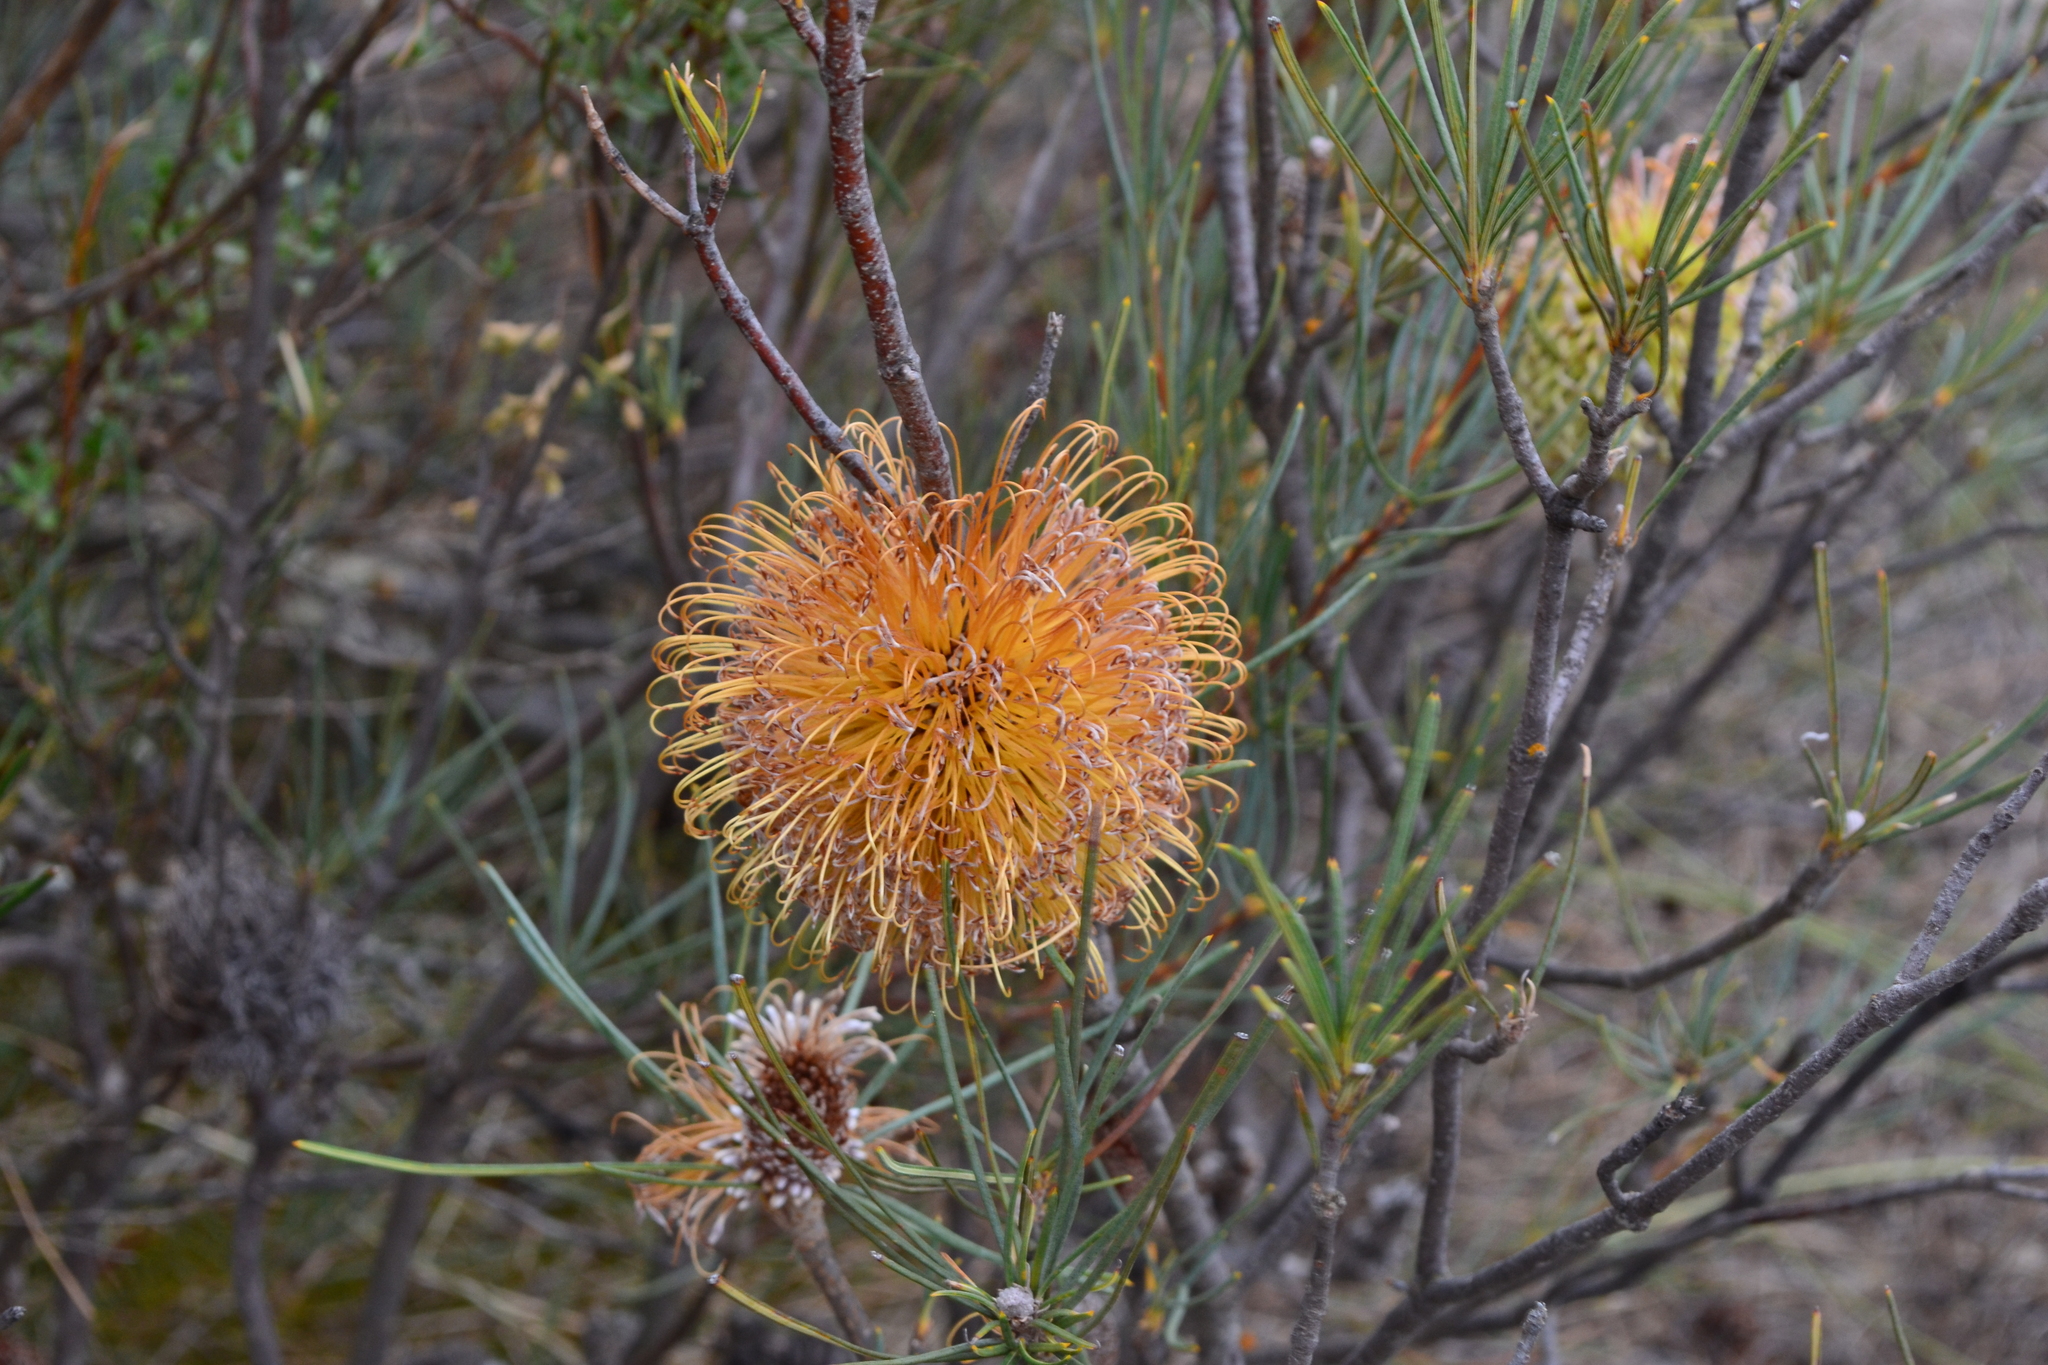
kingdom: Plantae
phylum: Tracheophyta
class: Magnoliopsida
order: Proteales
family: Proteaceae
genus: Banksia
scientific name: Banksia sphaerocarpa
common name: Fox banksia
